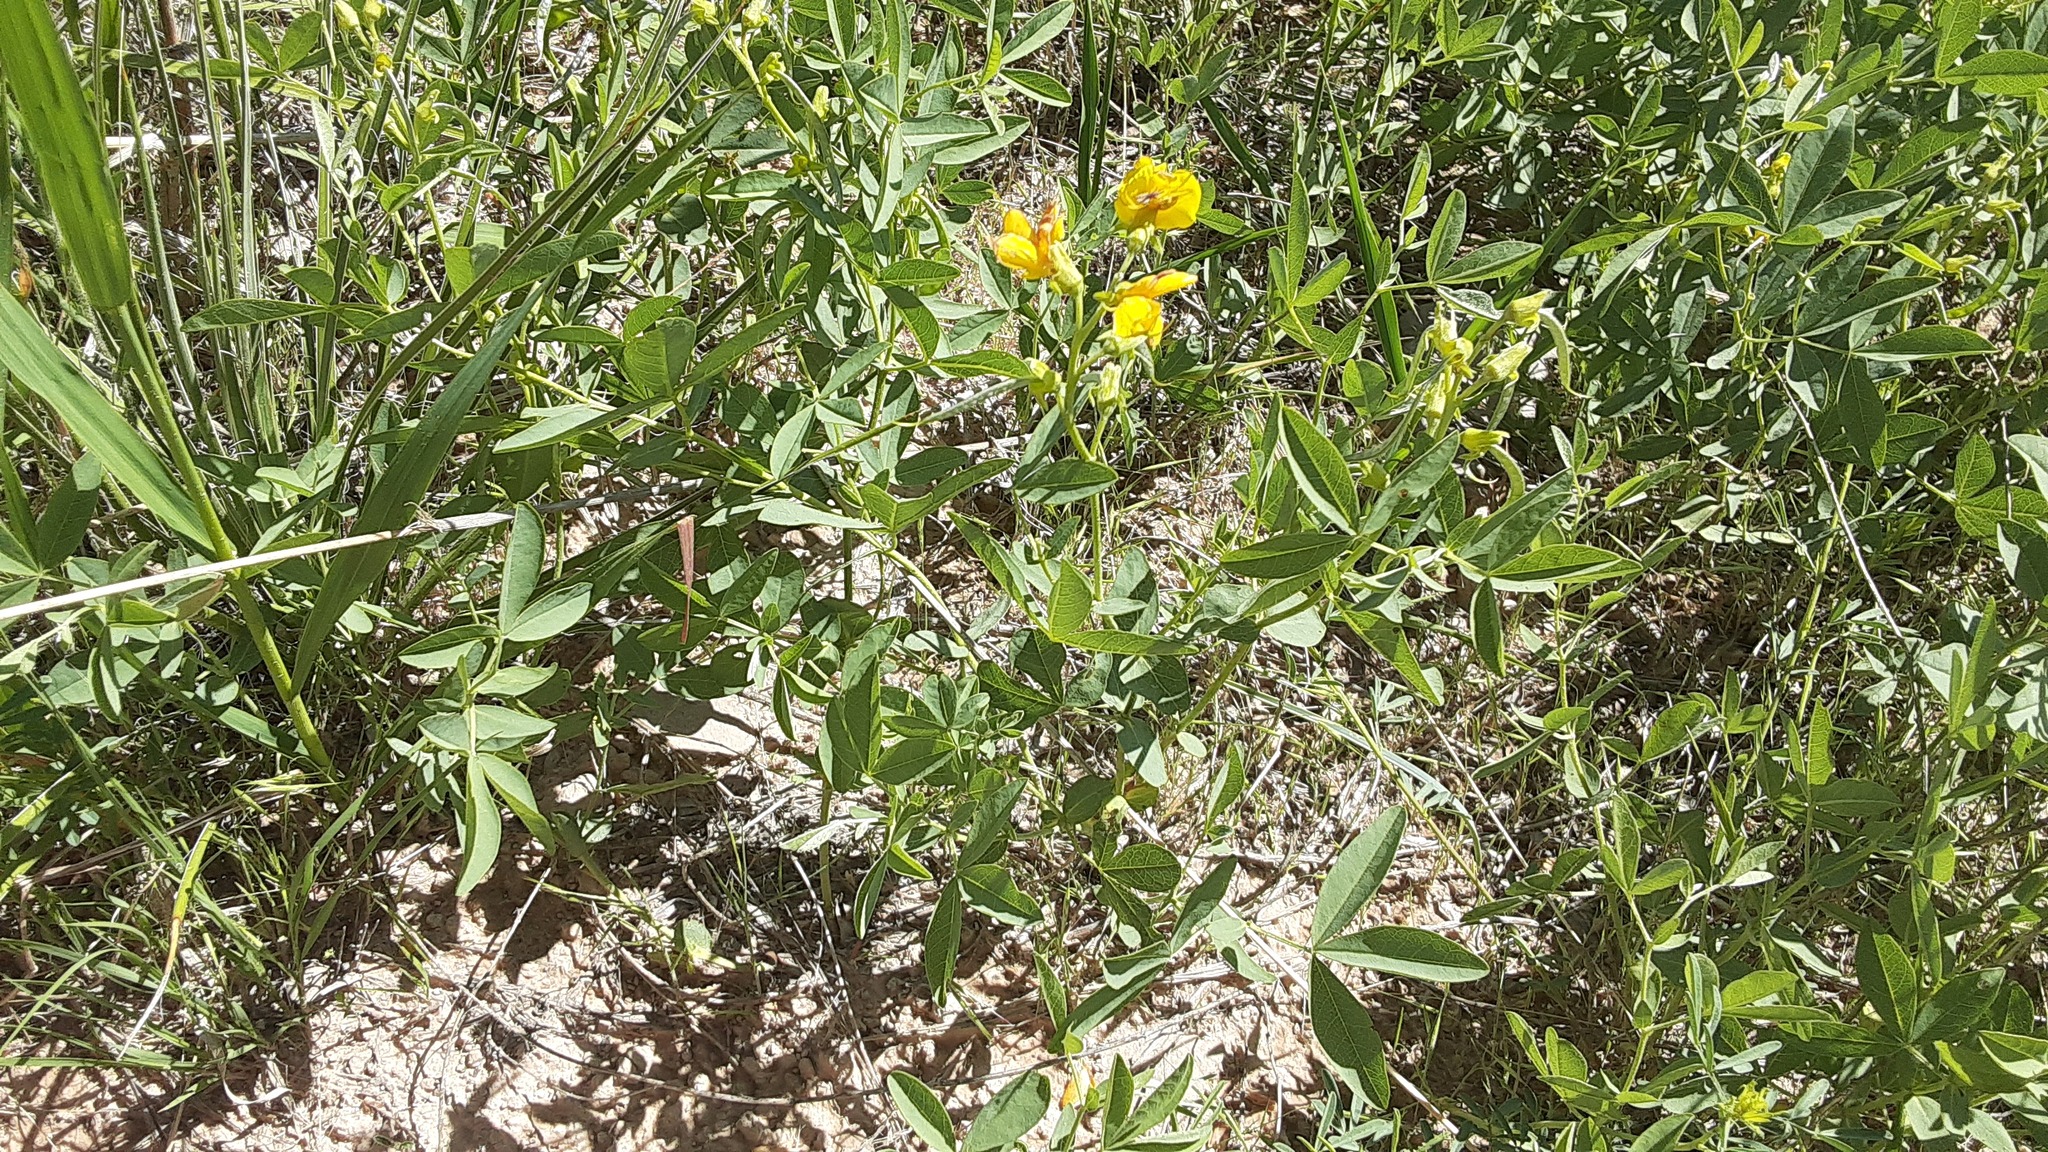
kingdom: Plantae
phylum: Tracheophyta
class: Magnoliopsida
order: Fabales
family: Fabaceae
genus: Thermopsis
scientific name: Thermopsis rhombifolia
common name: Circle-pod-pea
